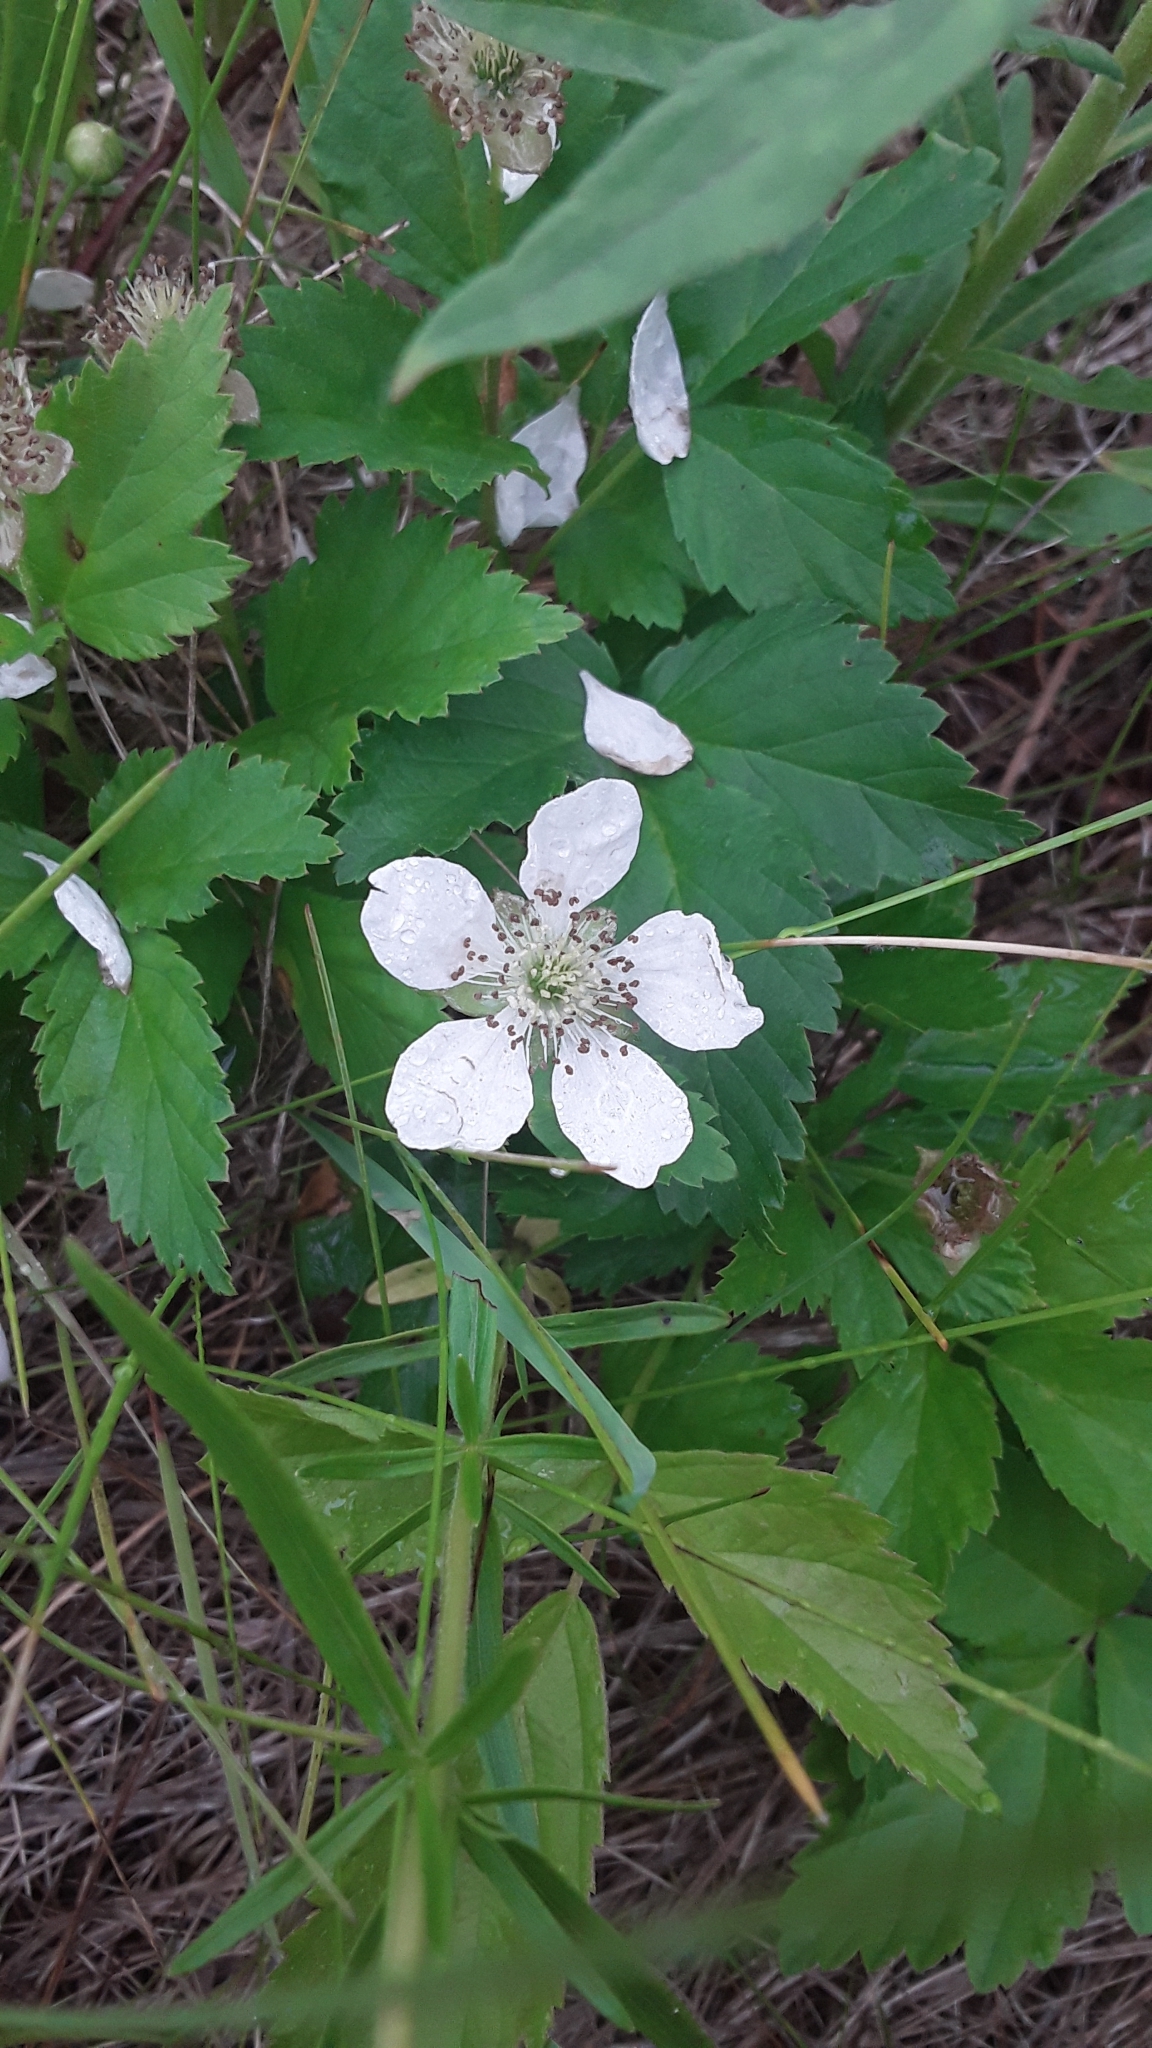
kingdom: Plantae
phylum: Tracheophyta
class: Magnoliopsida
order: Rosales
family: Rosaceae
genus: Rubus
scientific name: Rubus multifer
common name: Kinnickinnick dewberry
